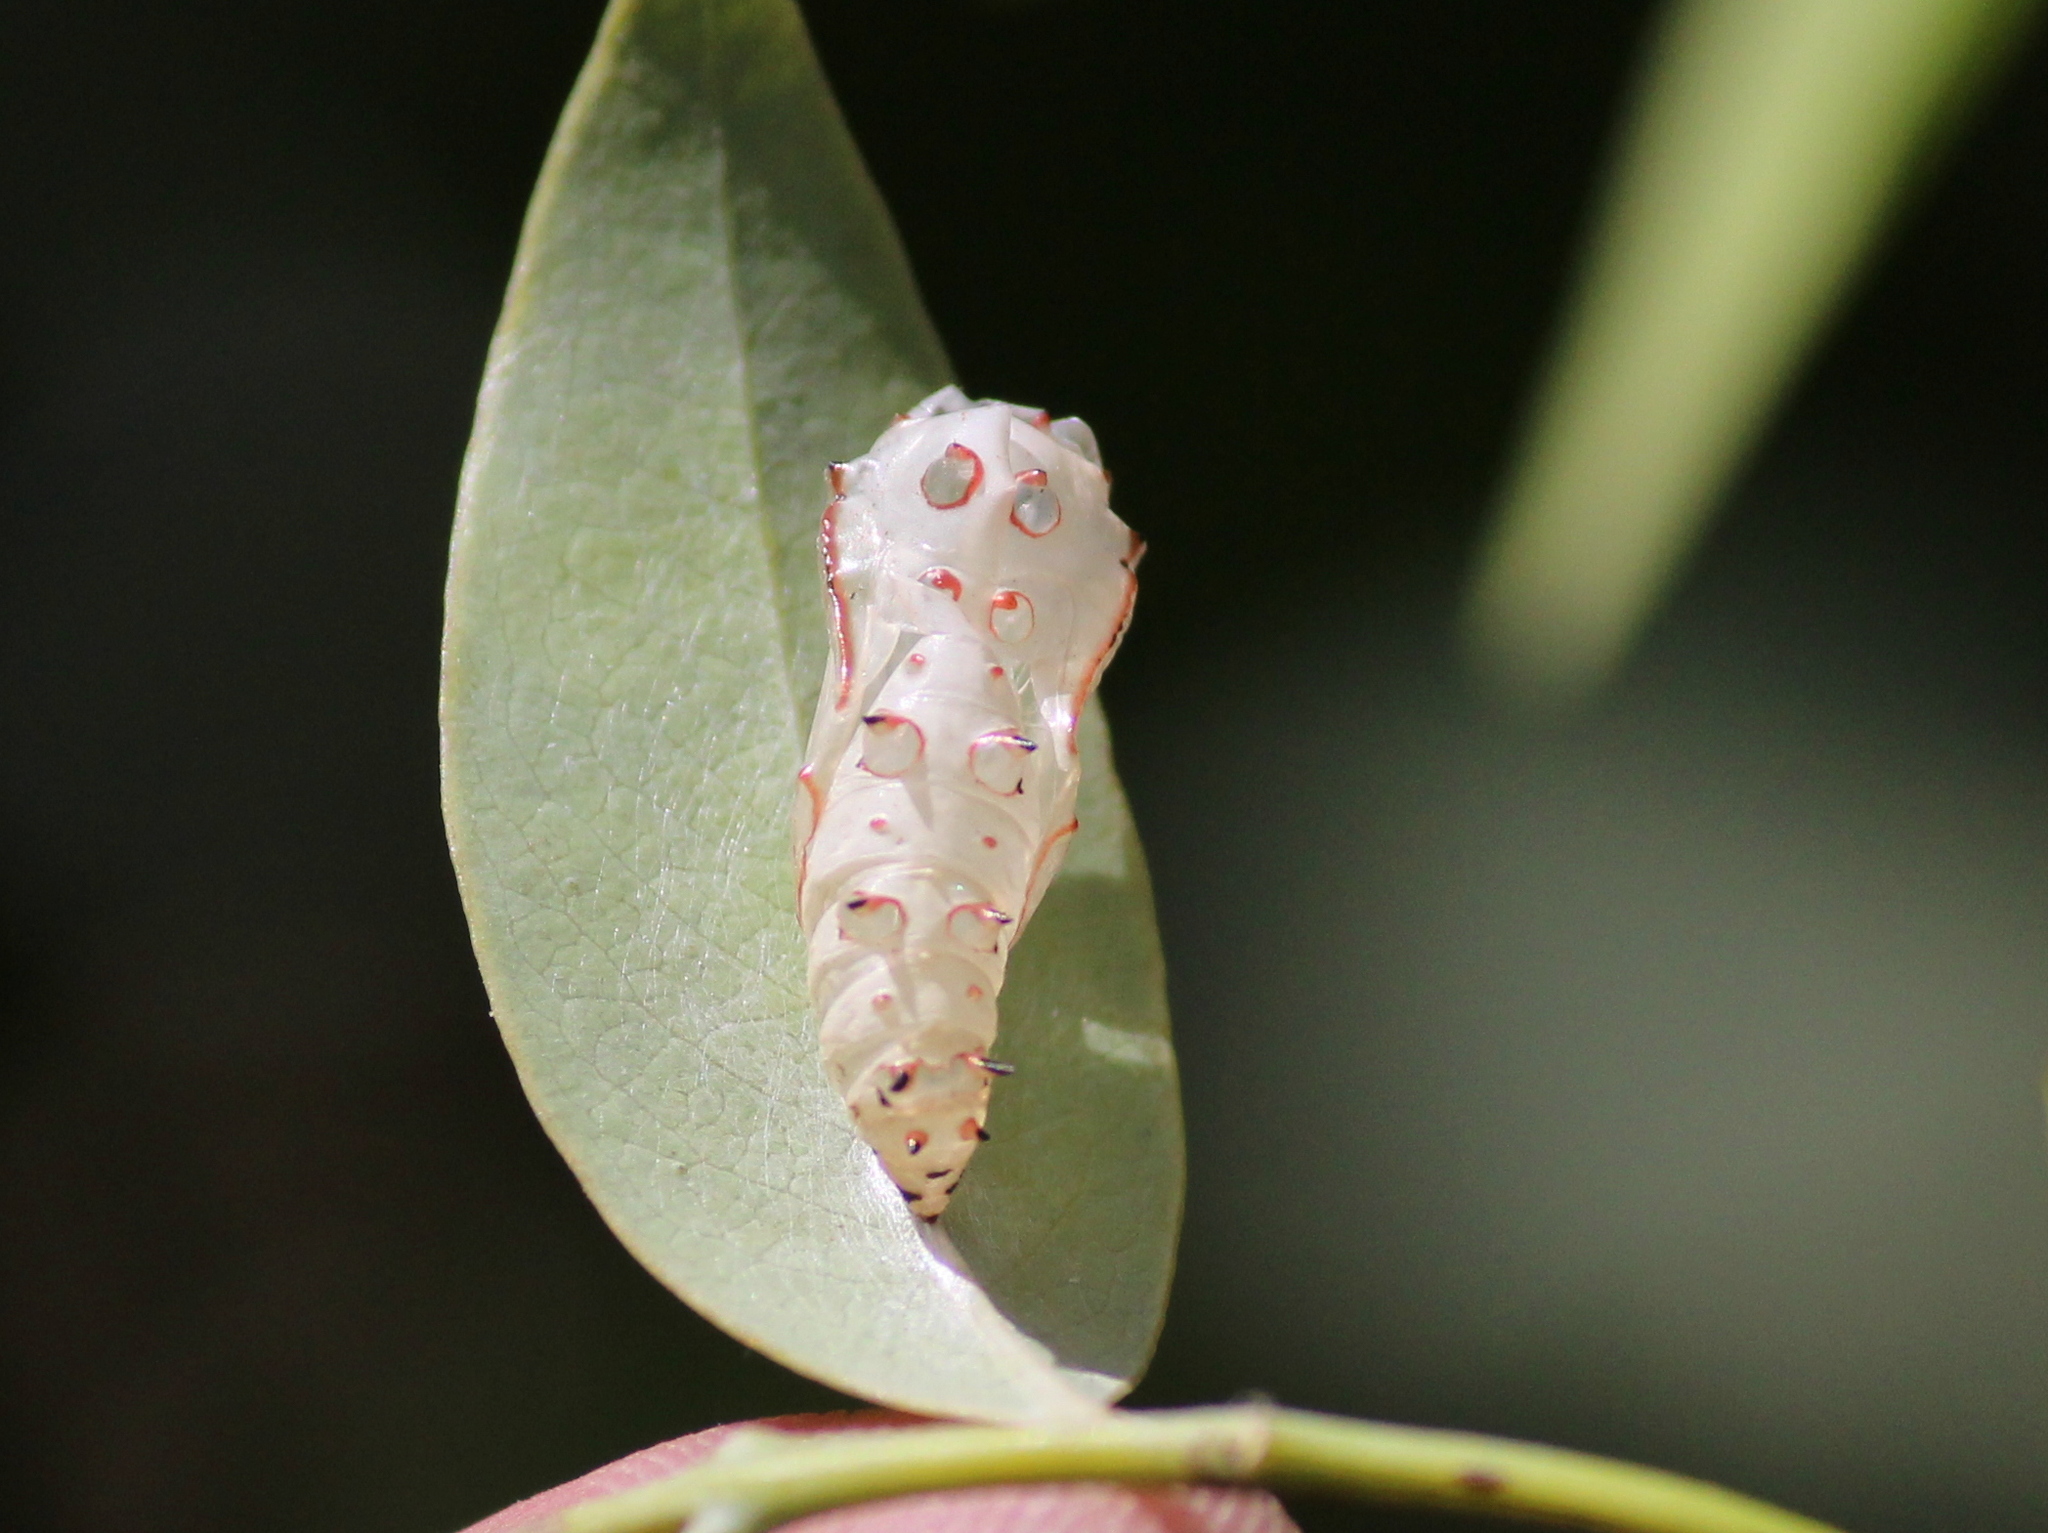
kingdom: Animalia
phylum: Arthropoda
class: Insecta
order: Lepidoptera
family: Nymphalidae
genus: Phalanta
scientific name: Phalanta phalantha
